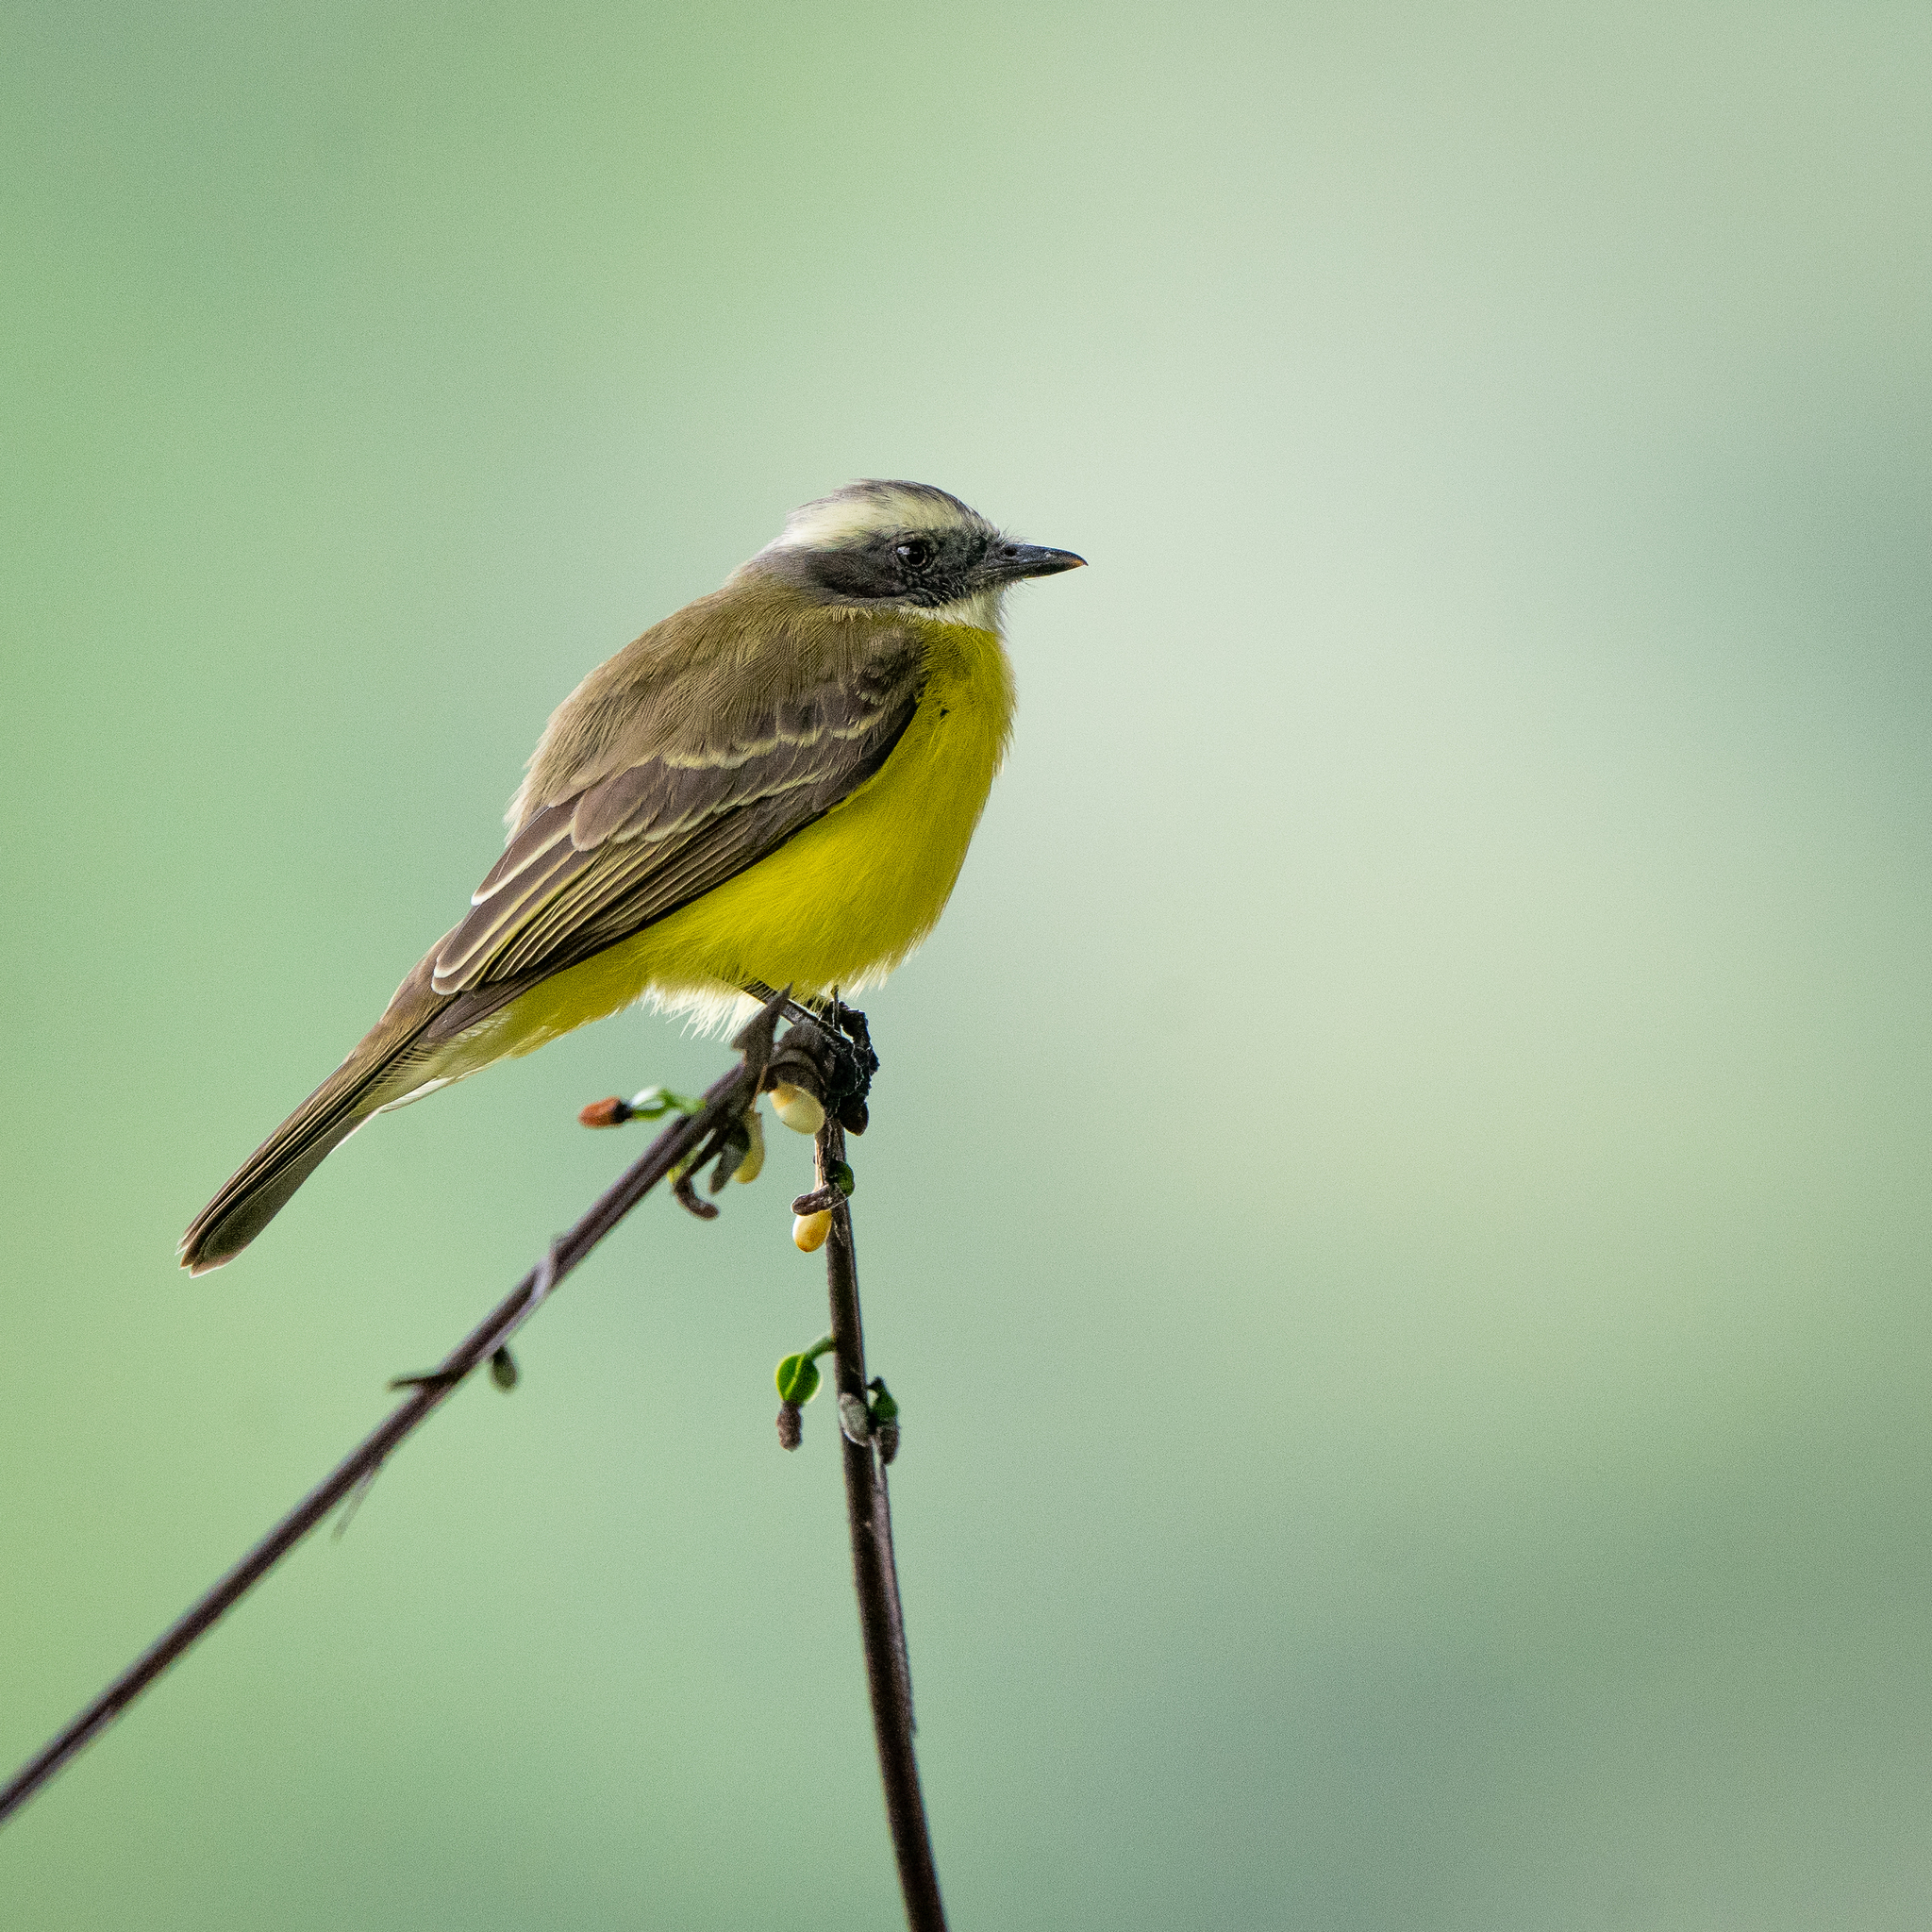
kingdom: Animalia
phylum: Chordata
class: Aves
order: Passeriformes
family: Tyrannidae
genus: Myiozetetes
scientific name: Myiozetetes similis
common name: Social flycatcher
